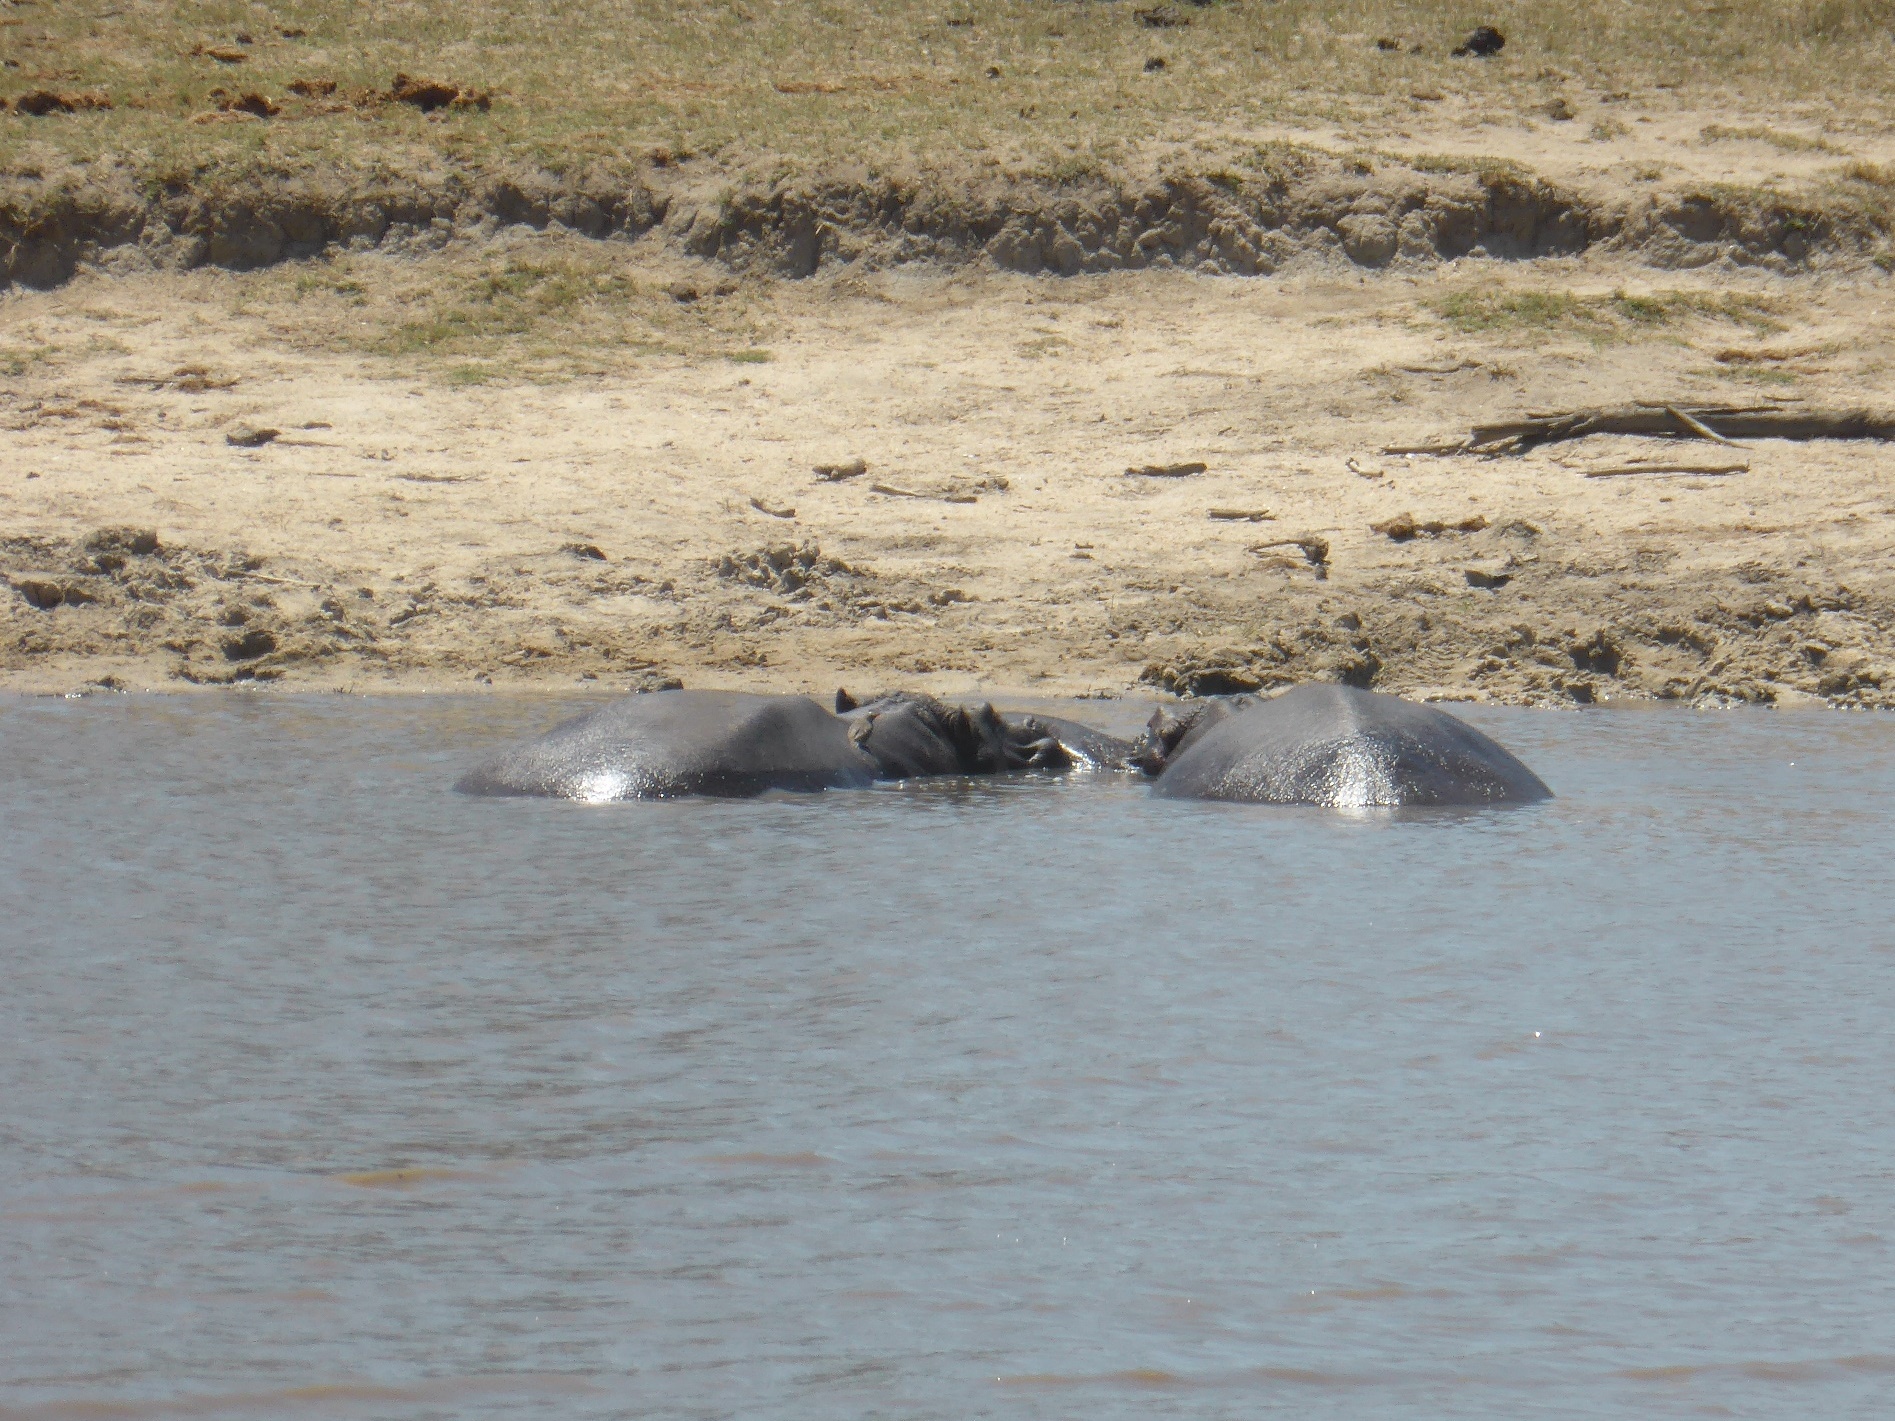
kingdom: Animalia
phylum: Chordata
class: Mammalia
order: Artiodactyla
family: Hippopotamidae
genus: Hippopotamus
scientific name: Hippopotamus amphibius
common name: Common hippopotamus
